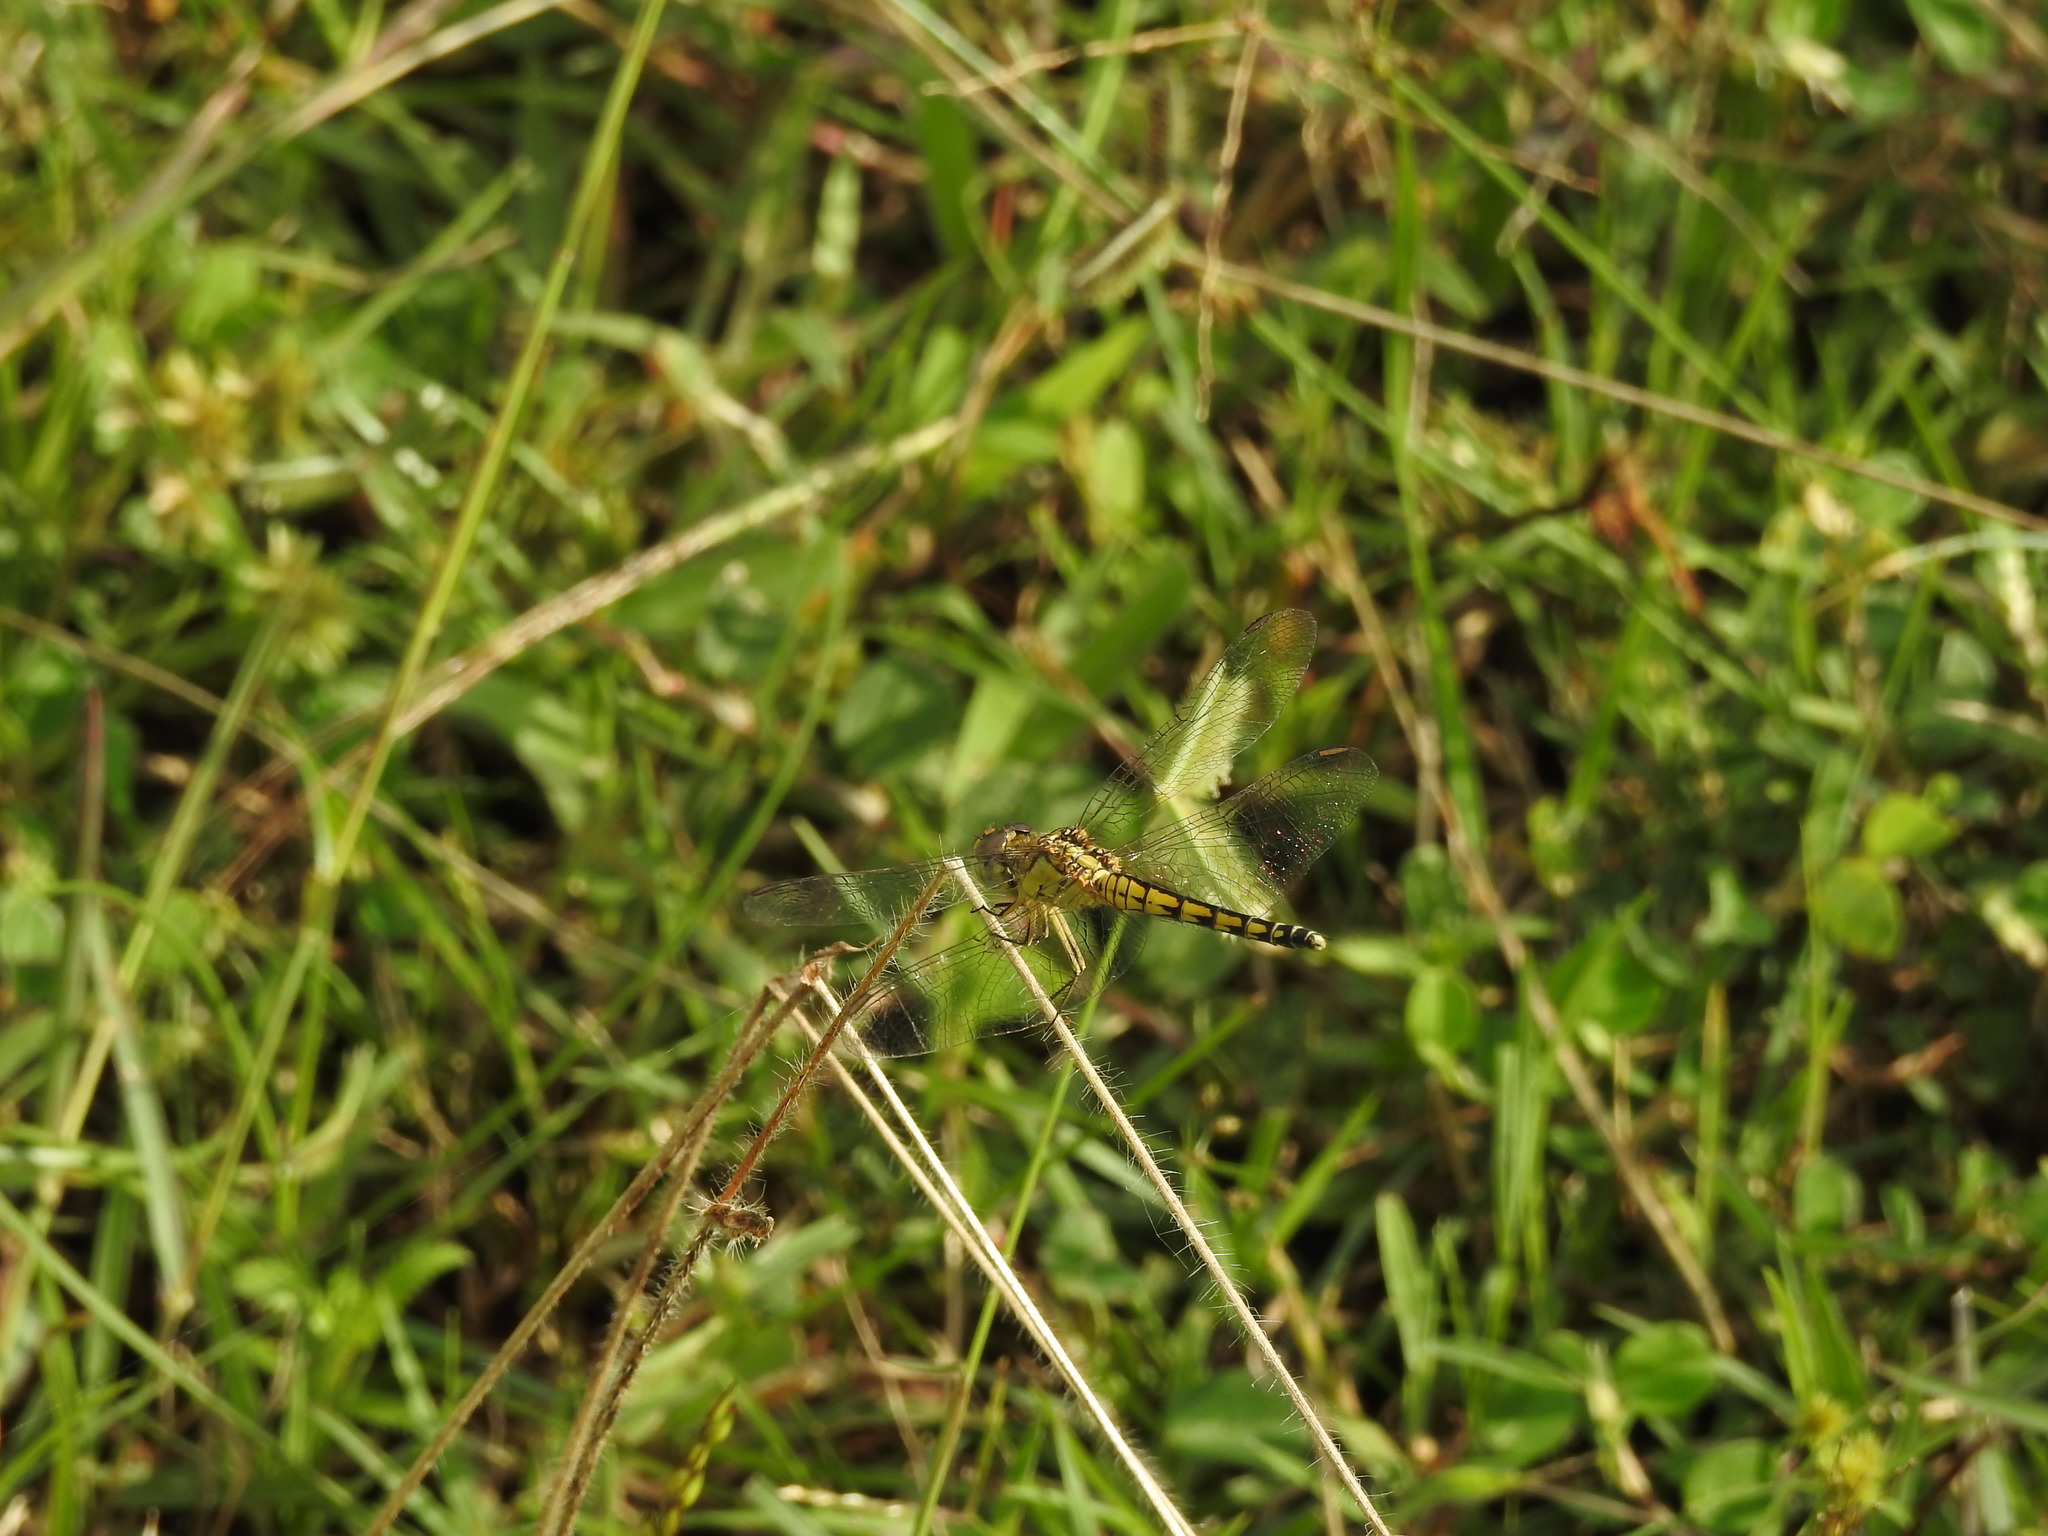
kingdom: Animalia
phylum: Arthropoda
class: Insecta
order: Odonata
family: Libellulidae
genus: Indothemis
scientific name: Indothemis carnatica
